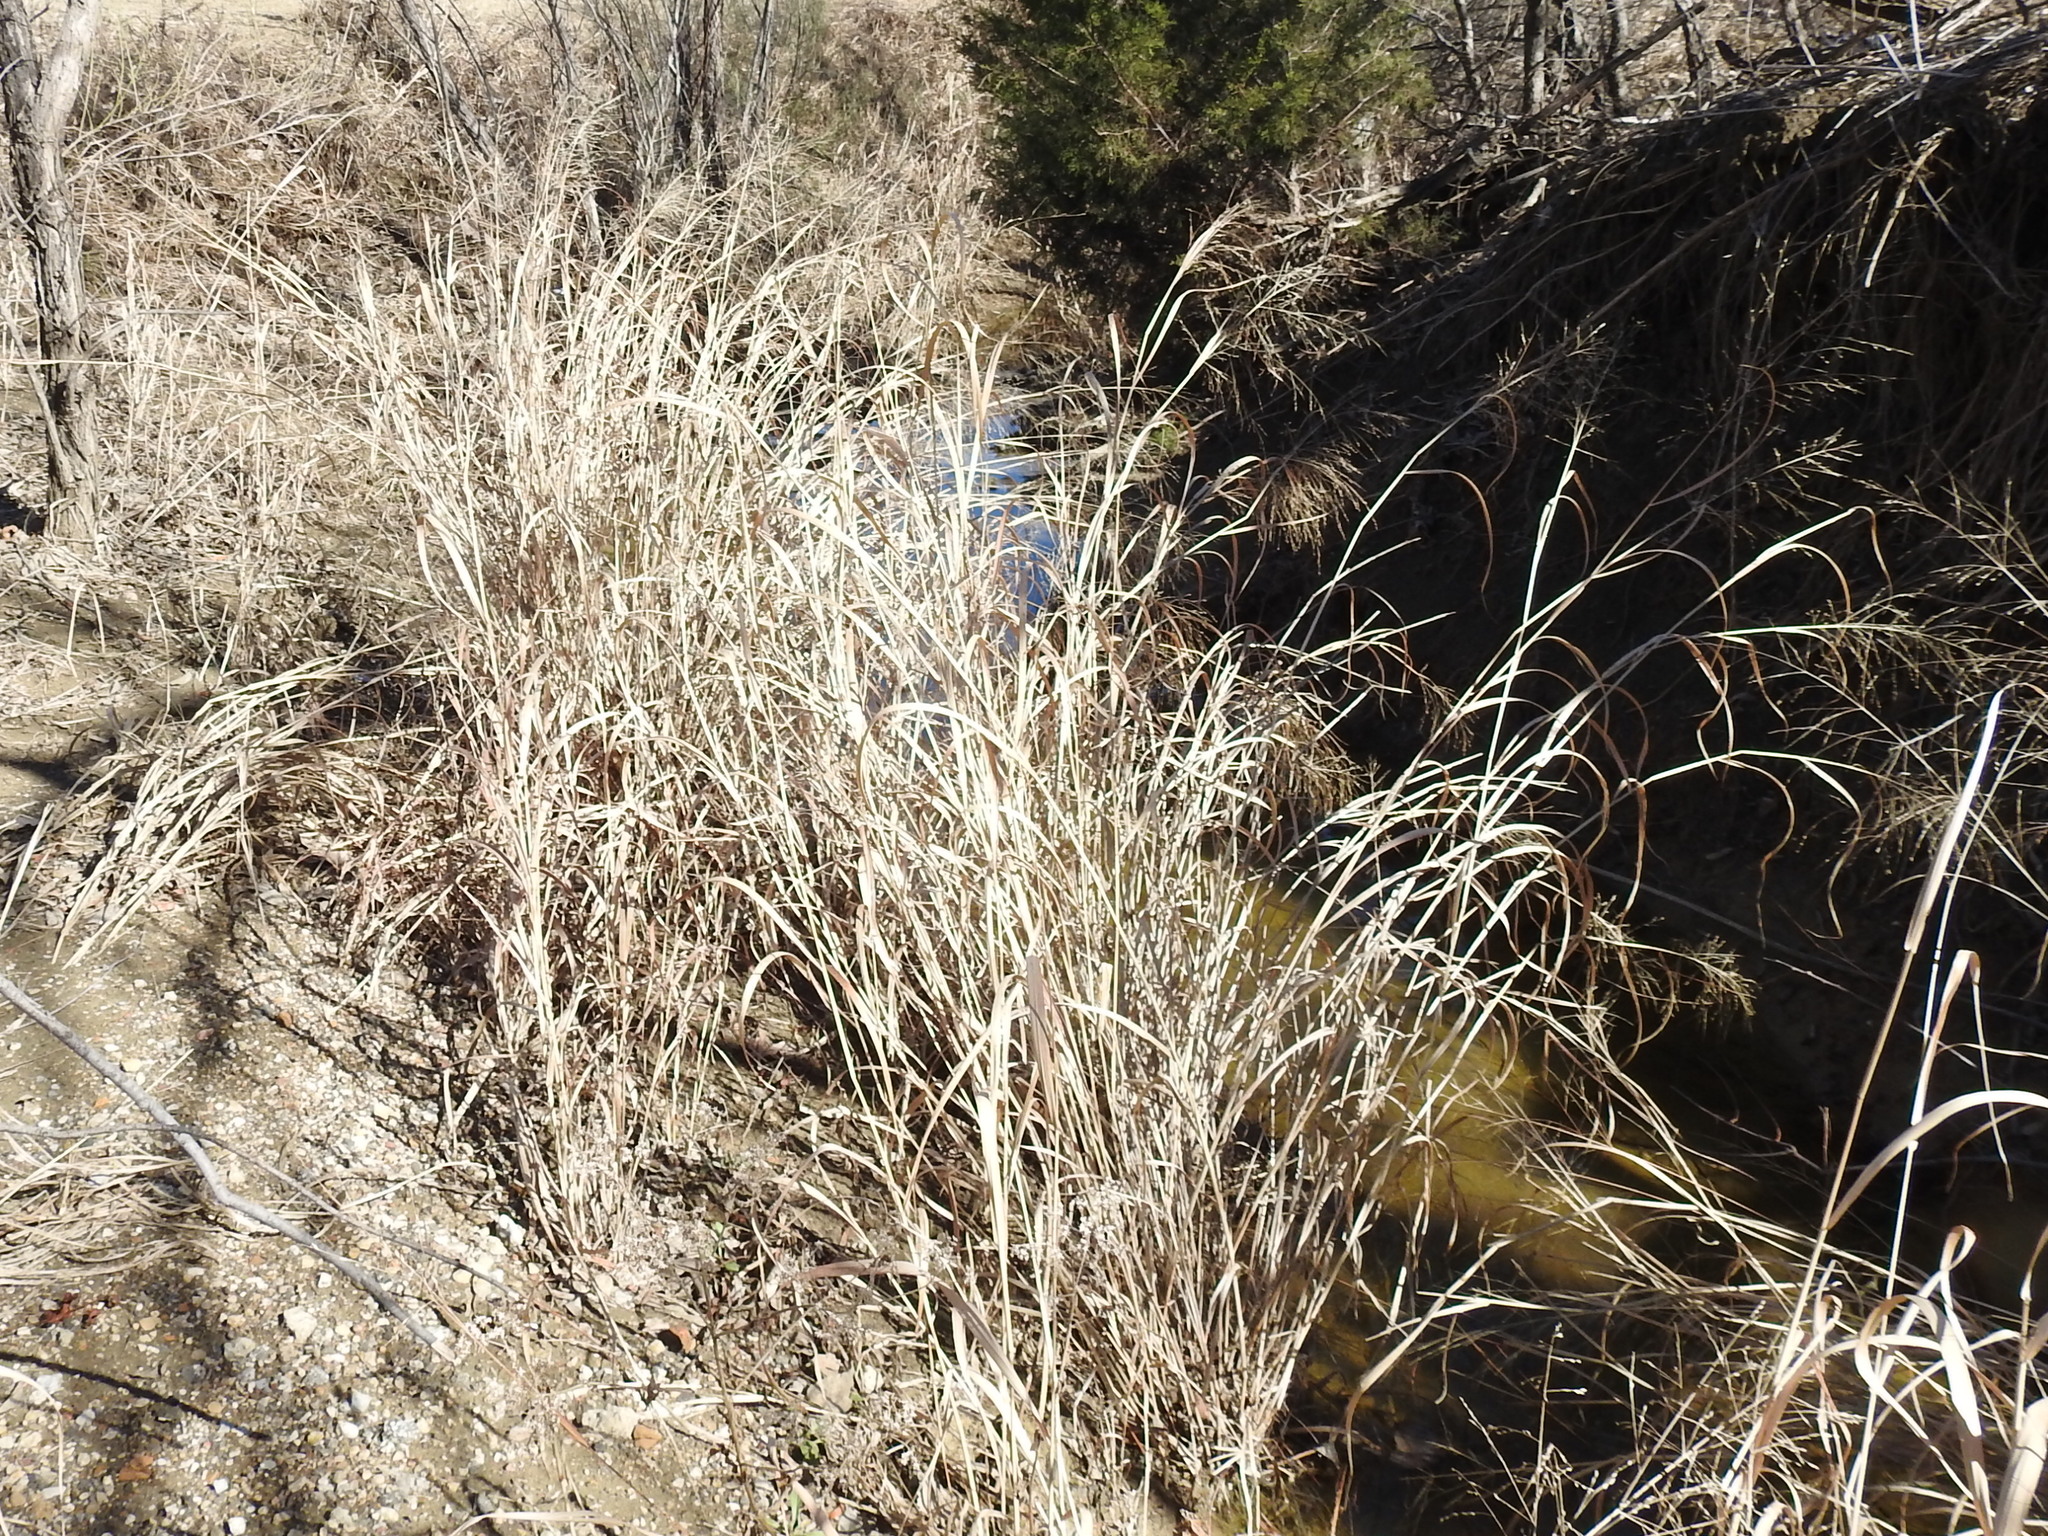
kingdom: Plantae
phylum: Tracheophyta
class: Liliopsida
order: Poales
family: Poaceae
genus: Panicum
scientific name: Panicum virgatum
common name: Switchgrass
